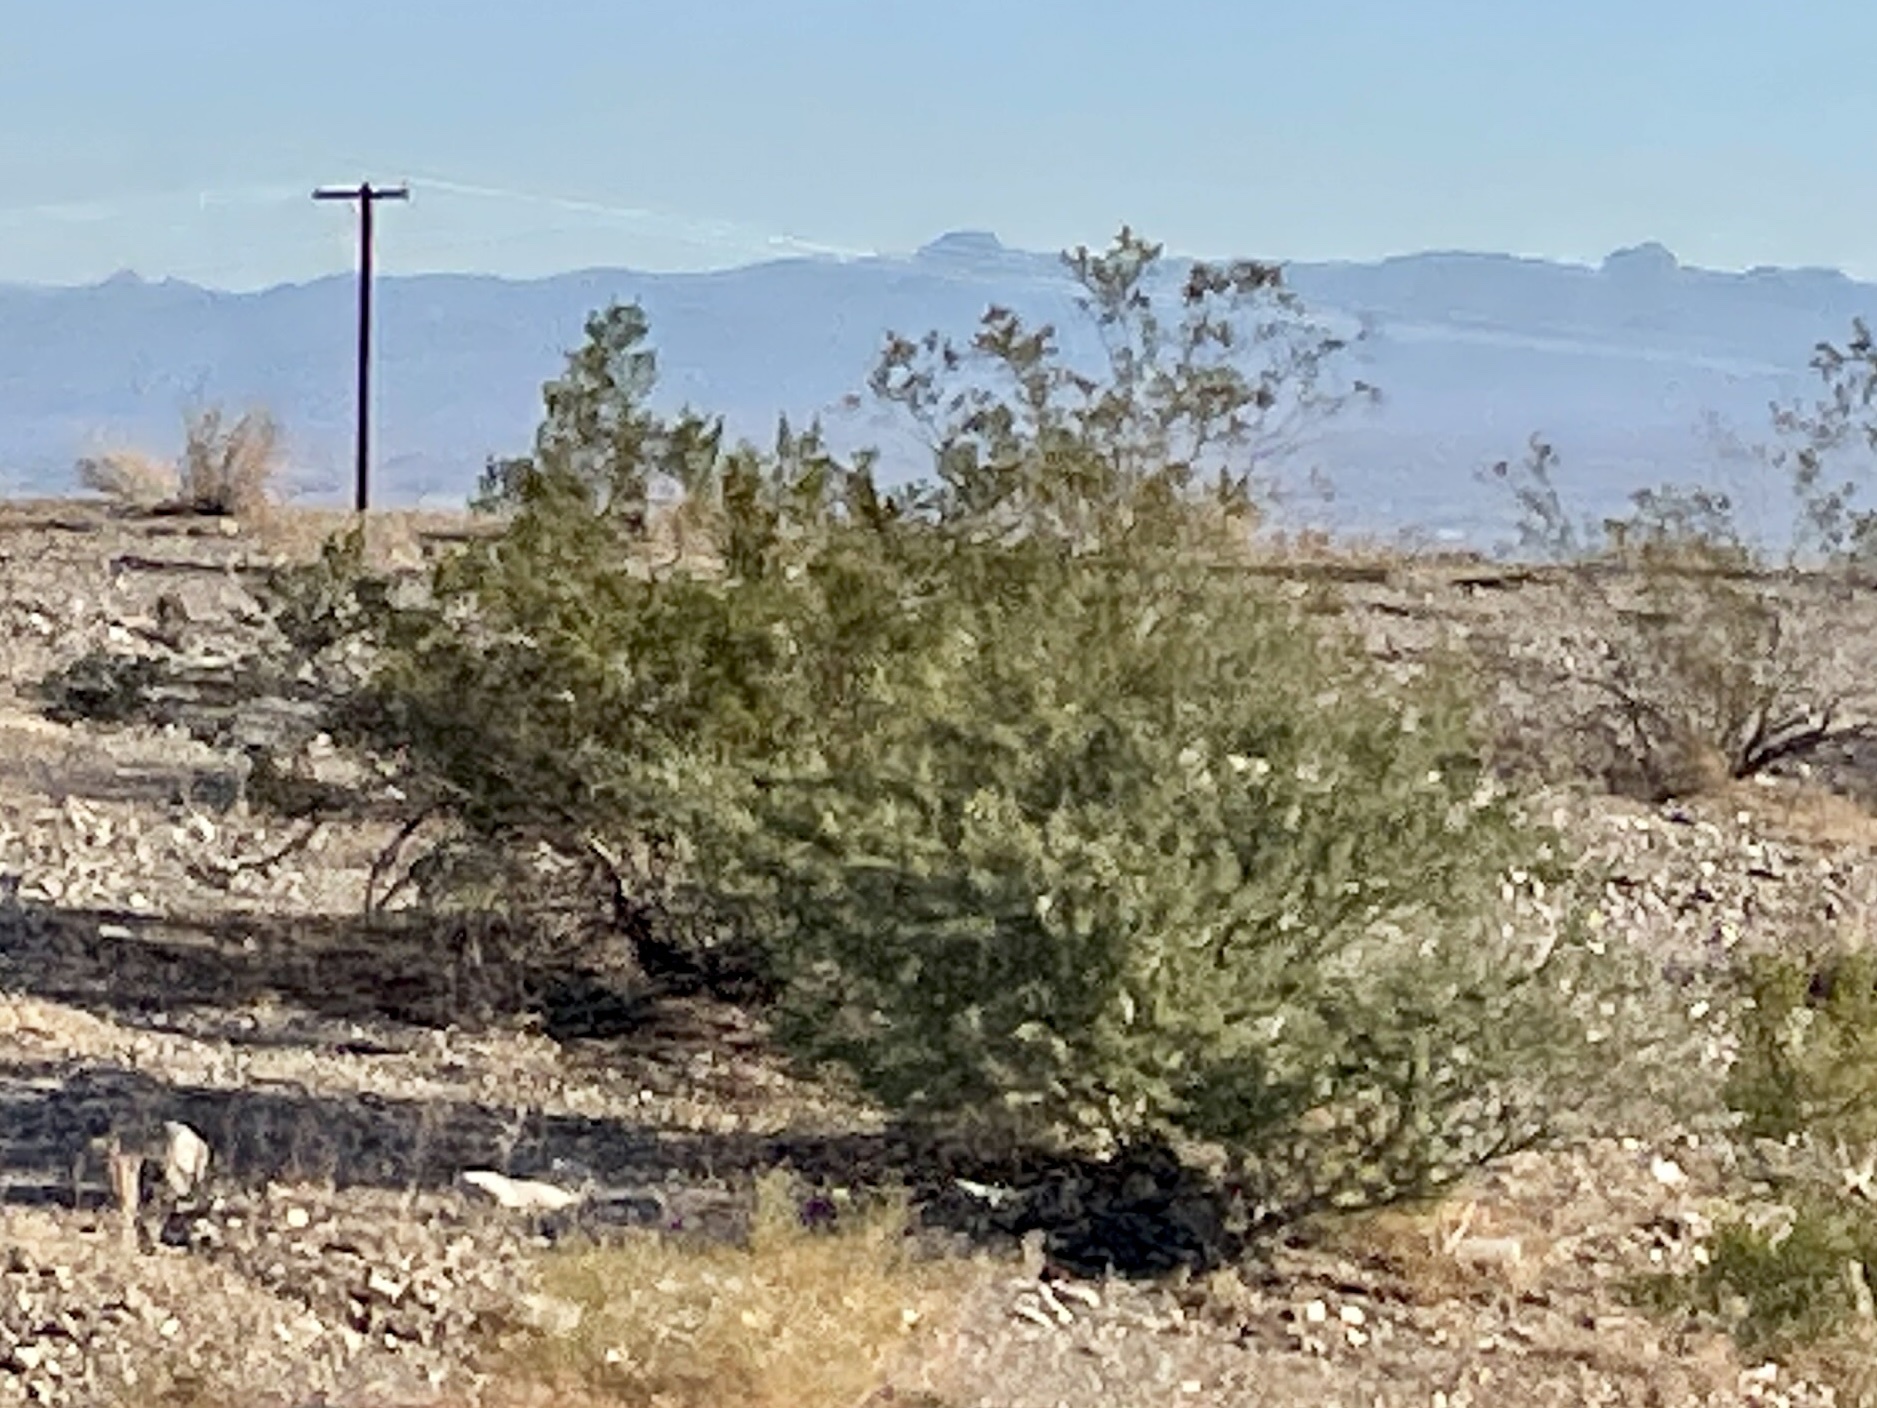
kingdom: Plantae
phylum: Tracheophyta
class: Magnoliopsida
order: Zygophyllales
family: Zygophyllaceae
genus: Larrea
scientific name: Larrea tridentata
